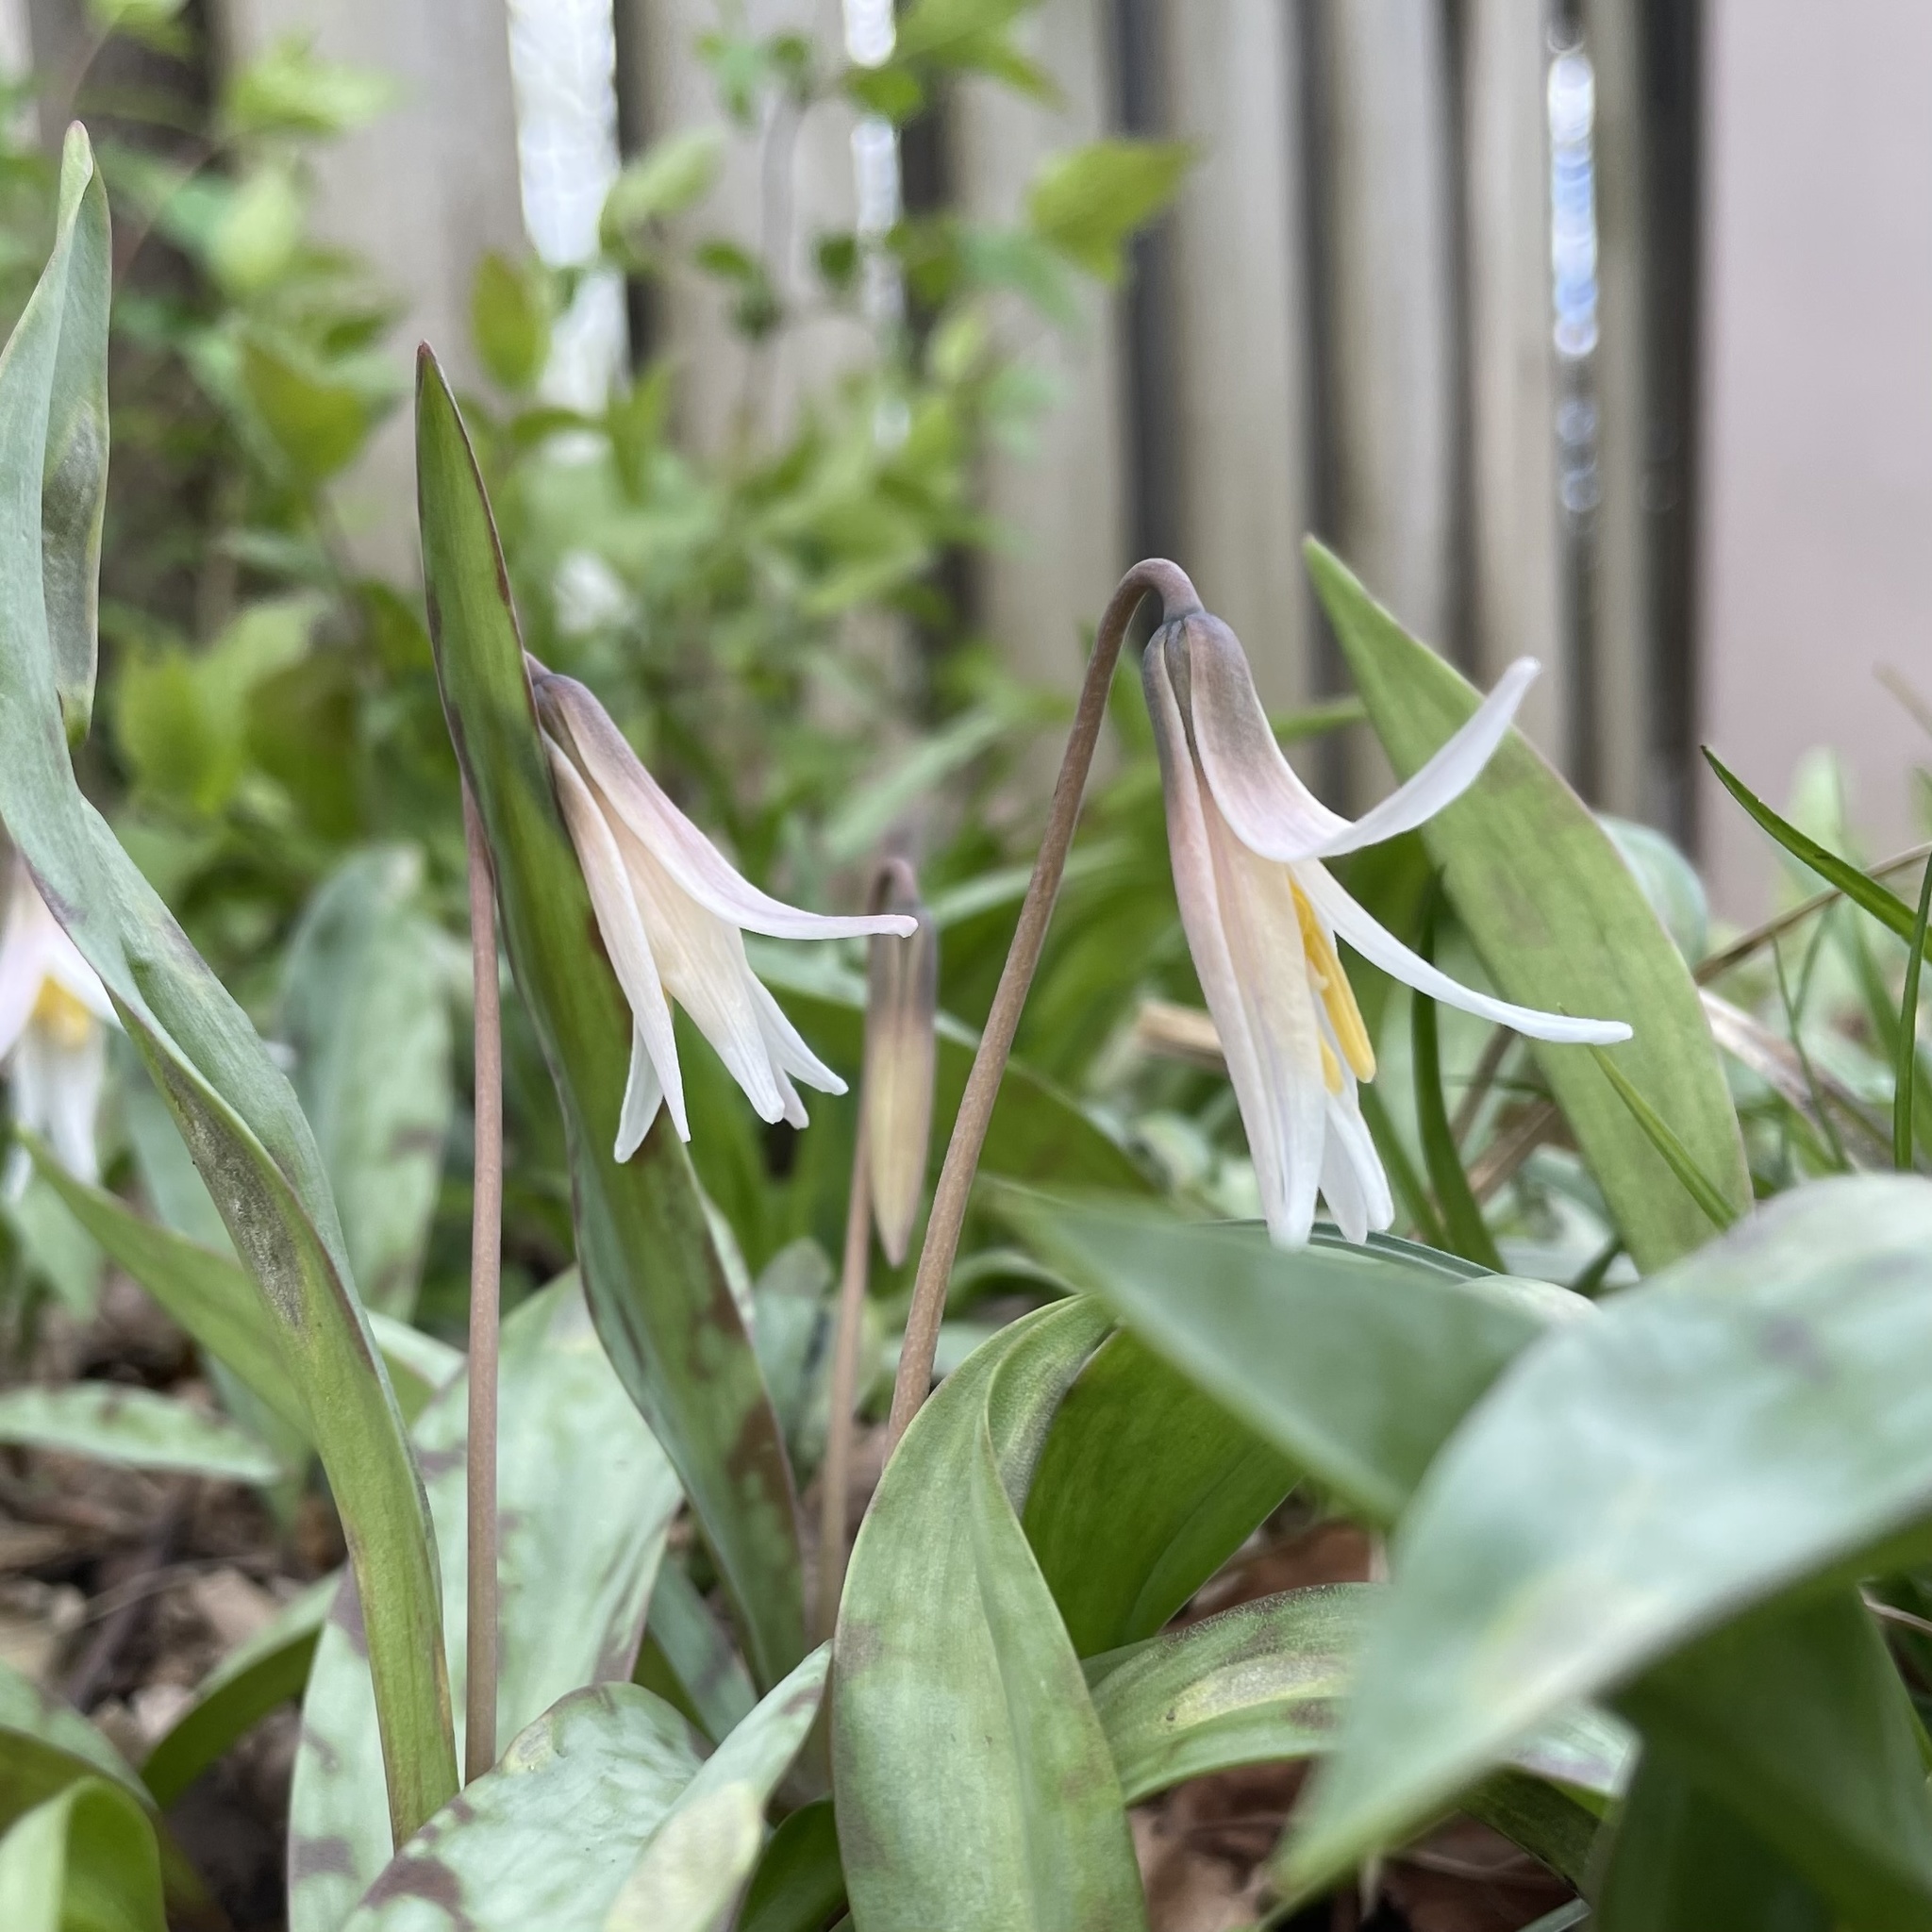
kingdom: Plantae
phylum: Tracheophyta
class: Liliopsida
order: Liliales
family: Liliaceae
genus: Erythronium
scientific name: Erythronium albidum
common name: White trout-lily
